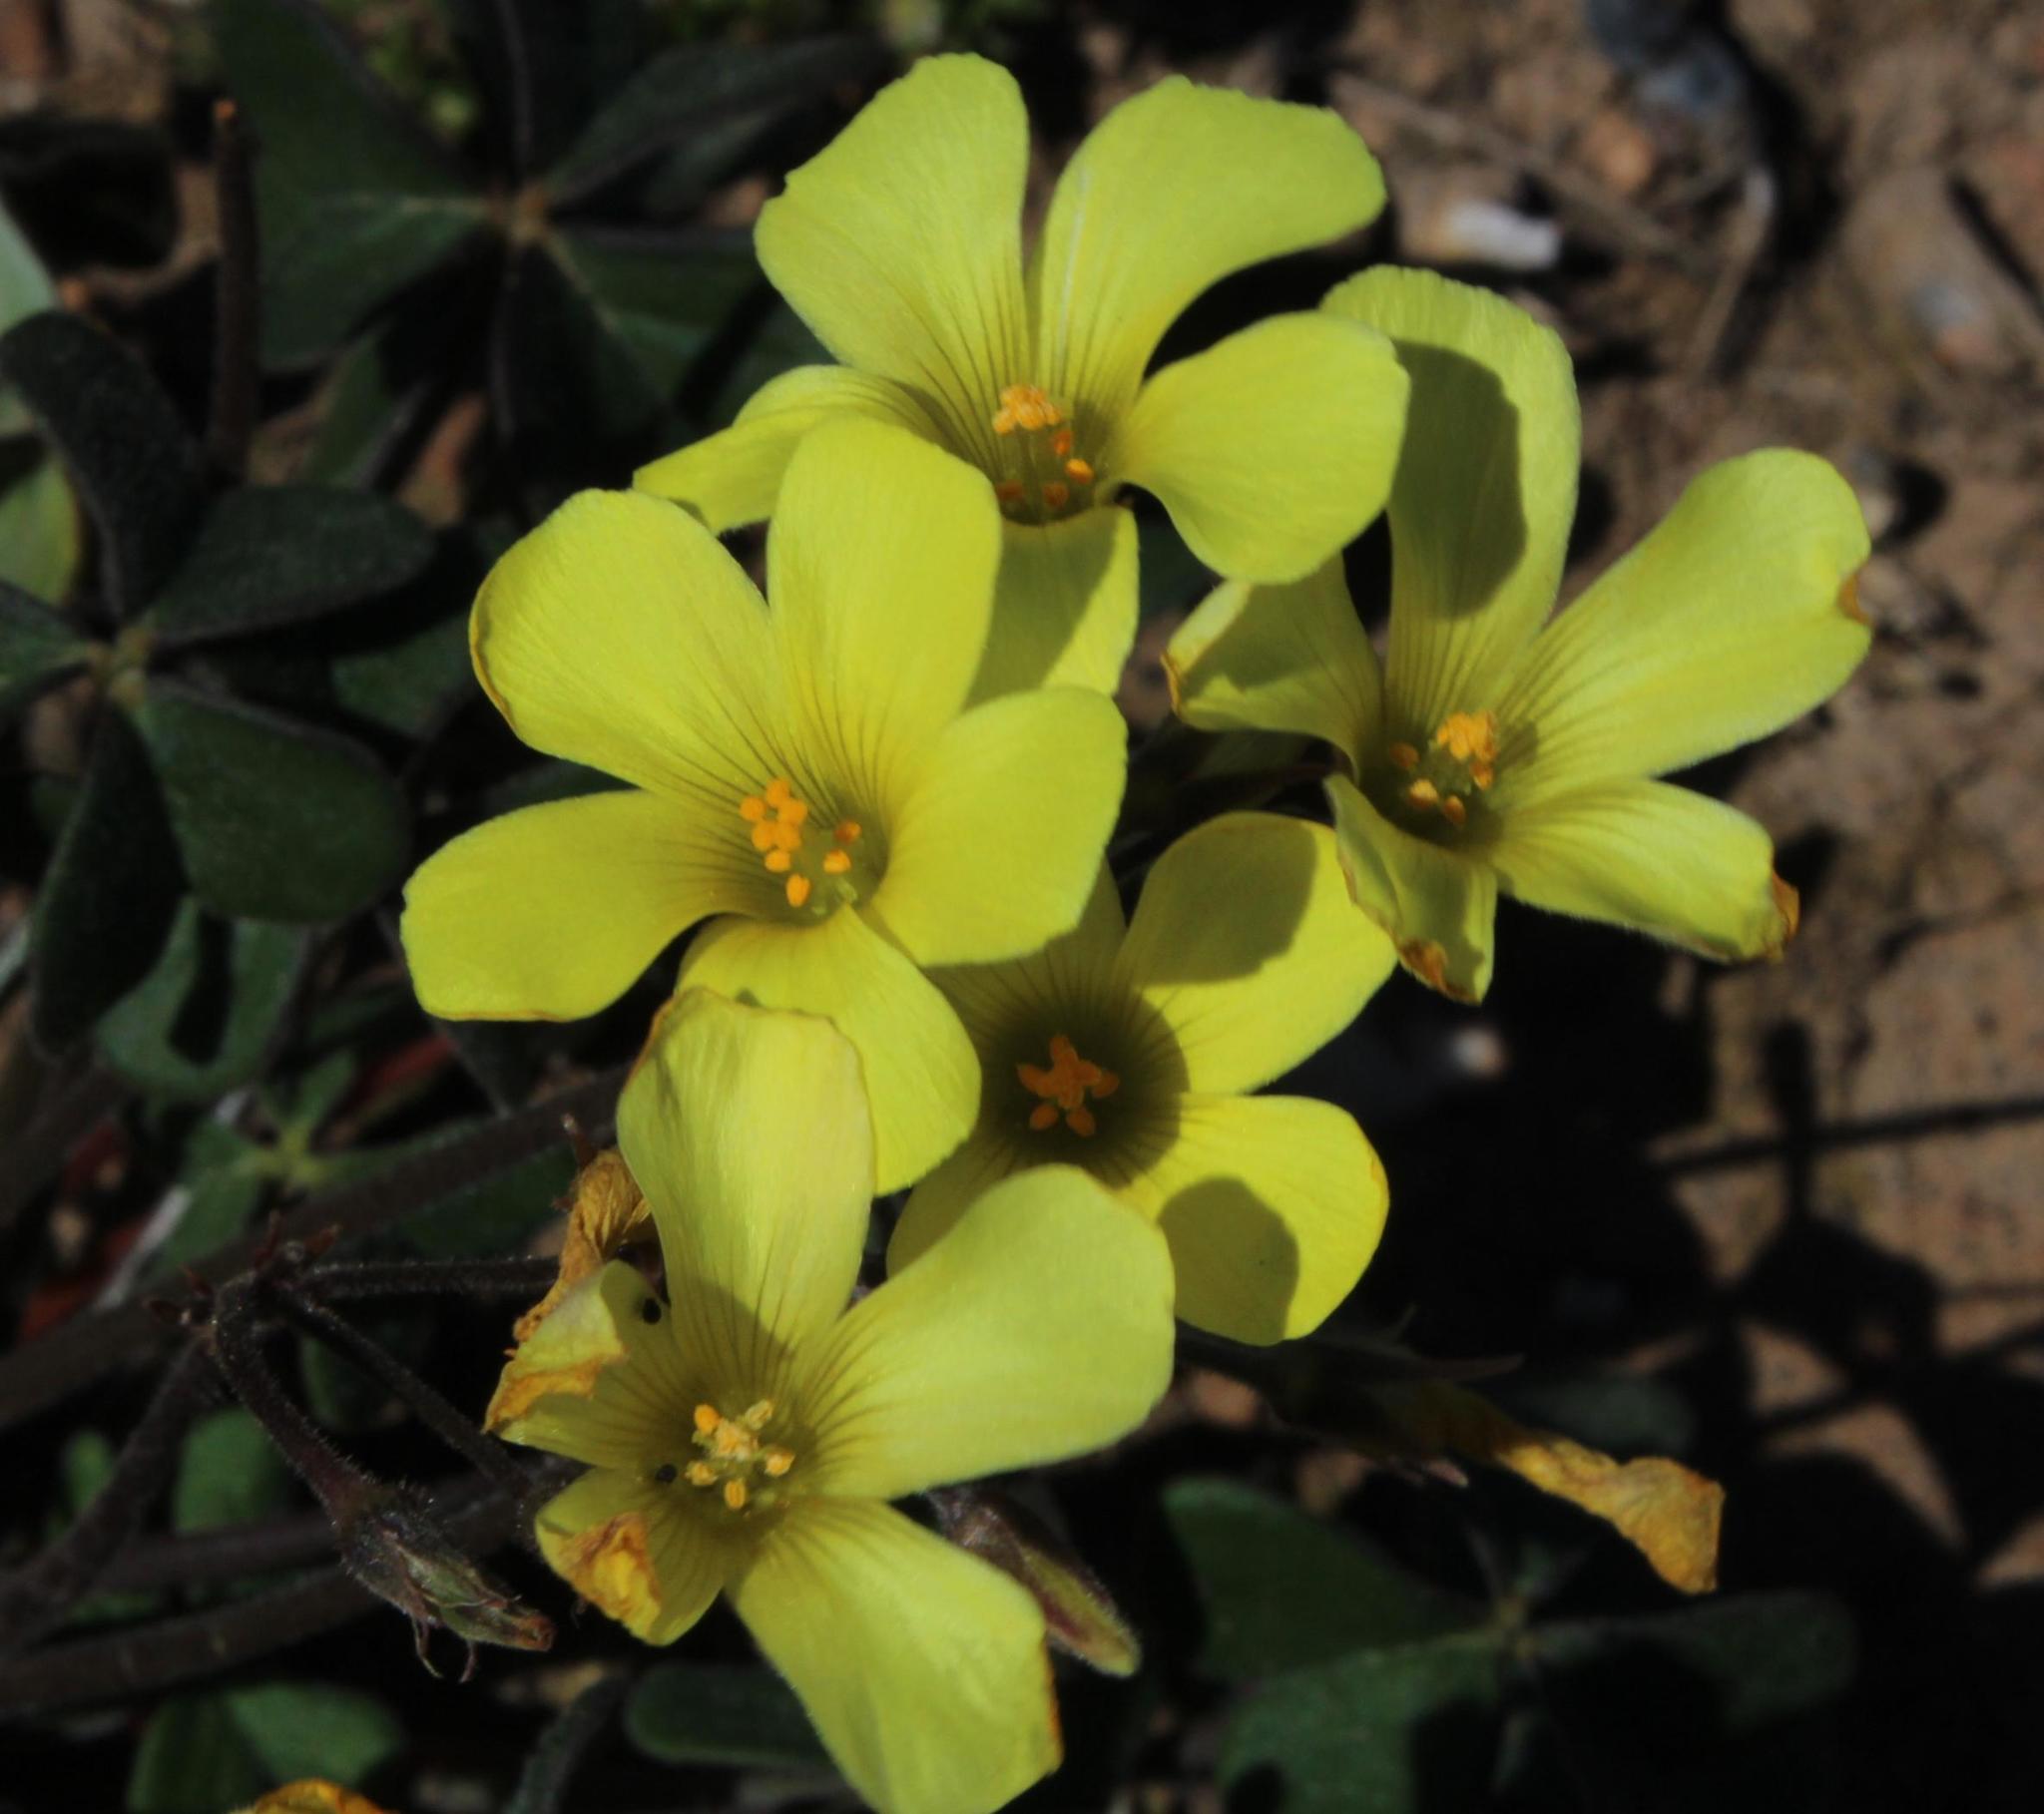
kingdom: Plantae
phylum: Tracheophyta
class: Magnoliopsida
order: Oxalidales
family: Oxalidaceae
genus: Oxalis
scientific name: Oxalis pes-caprae
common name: Bermuda-buttercup
